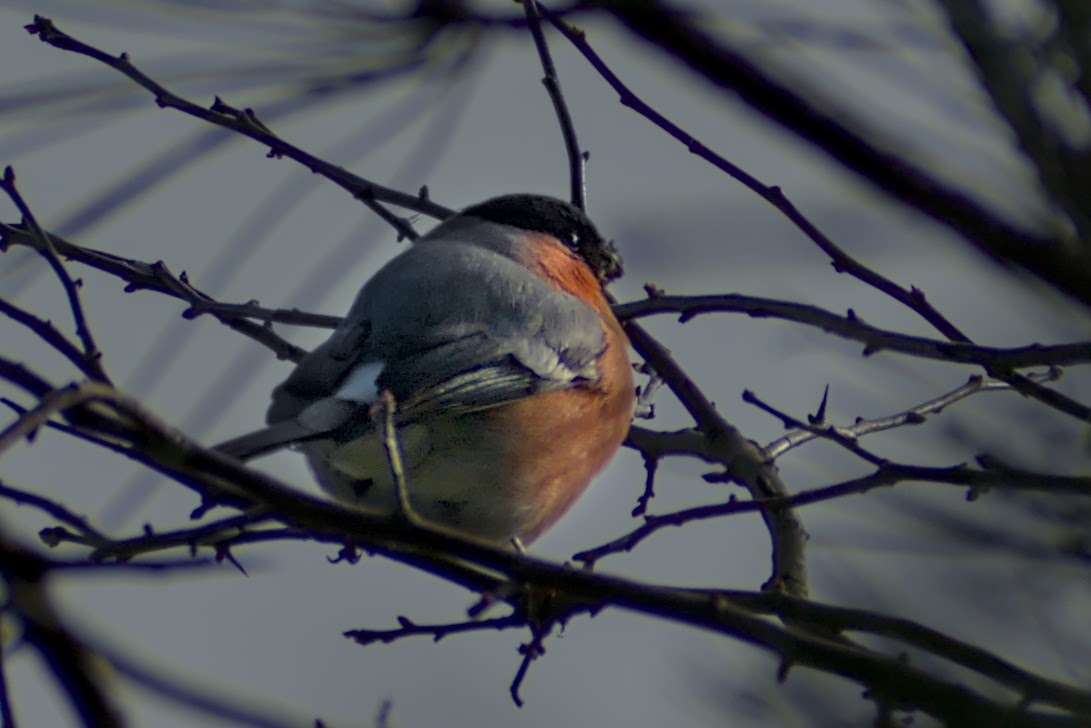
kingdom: Animalia
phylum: Chordata
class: Aves
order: Passeriformes
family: Fringillidae
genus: Pyrrhula
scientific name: Pyrrhula pyrrhula
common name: Eurasian bullfinch
